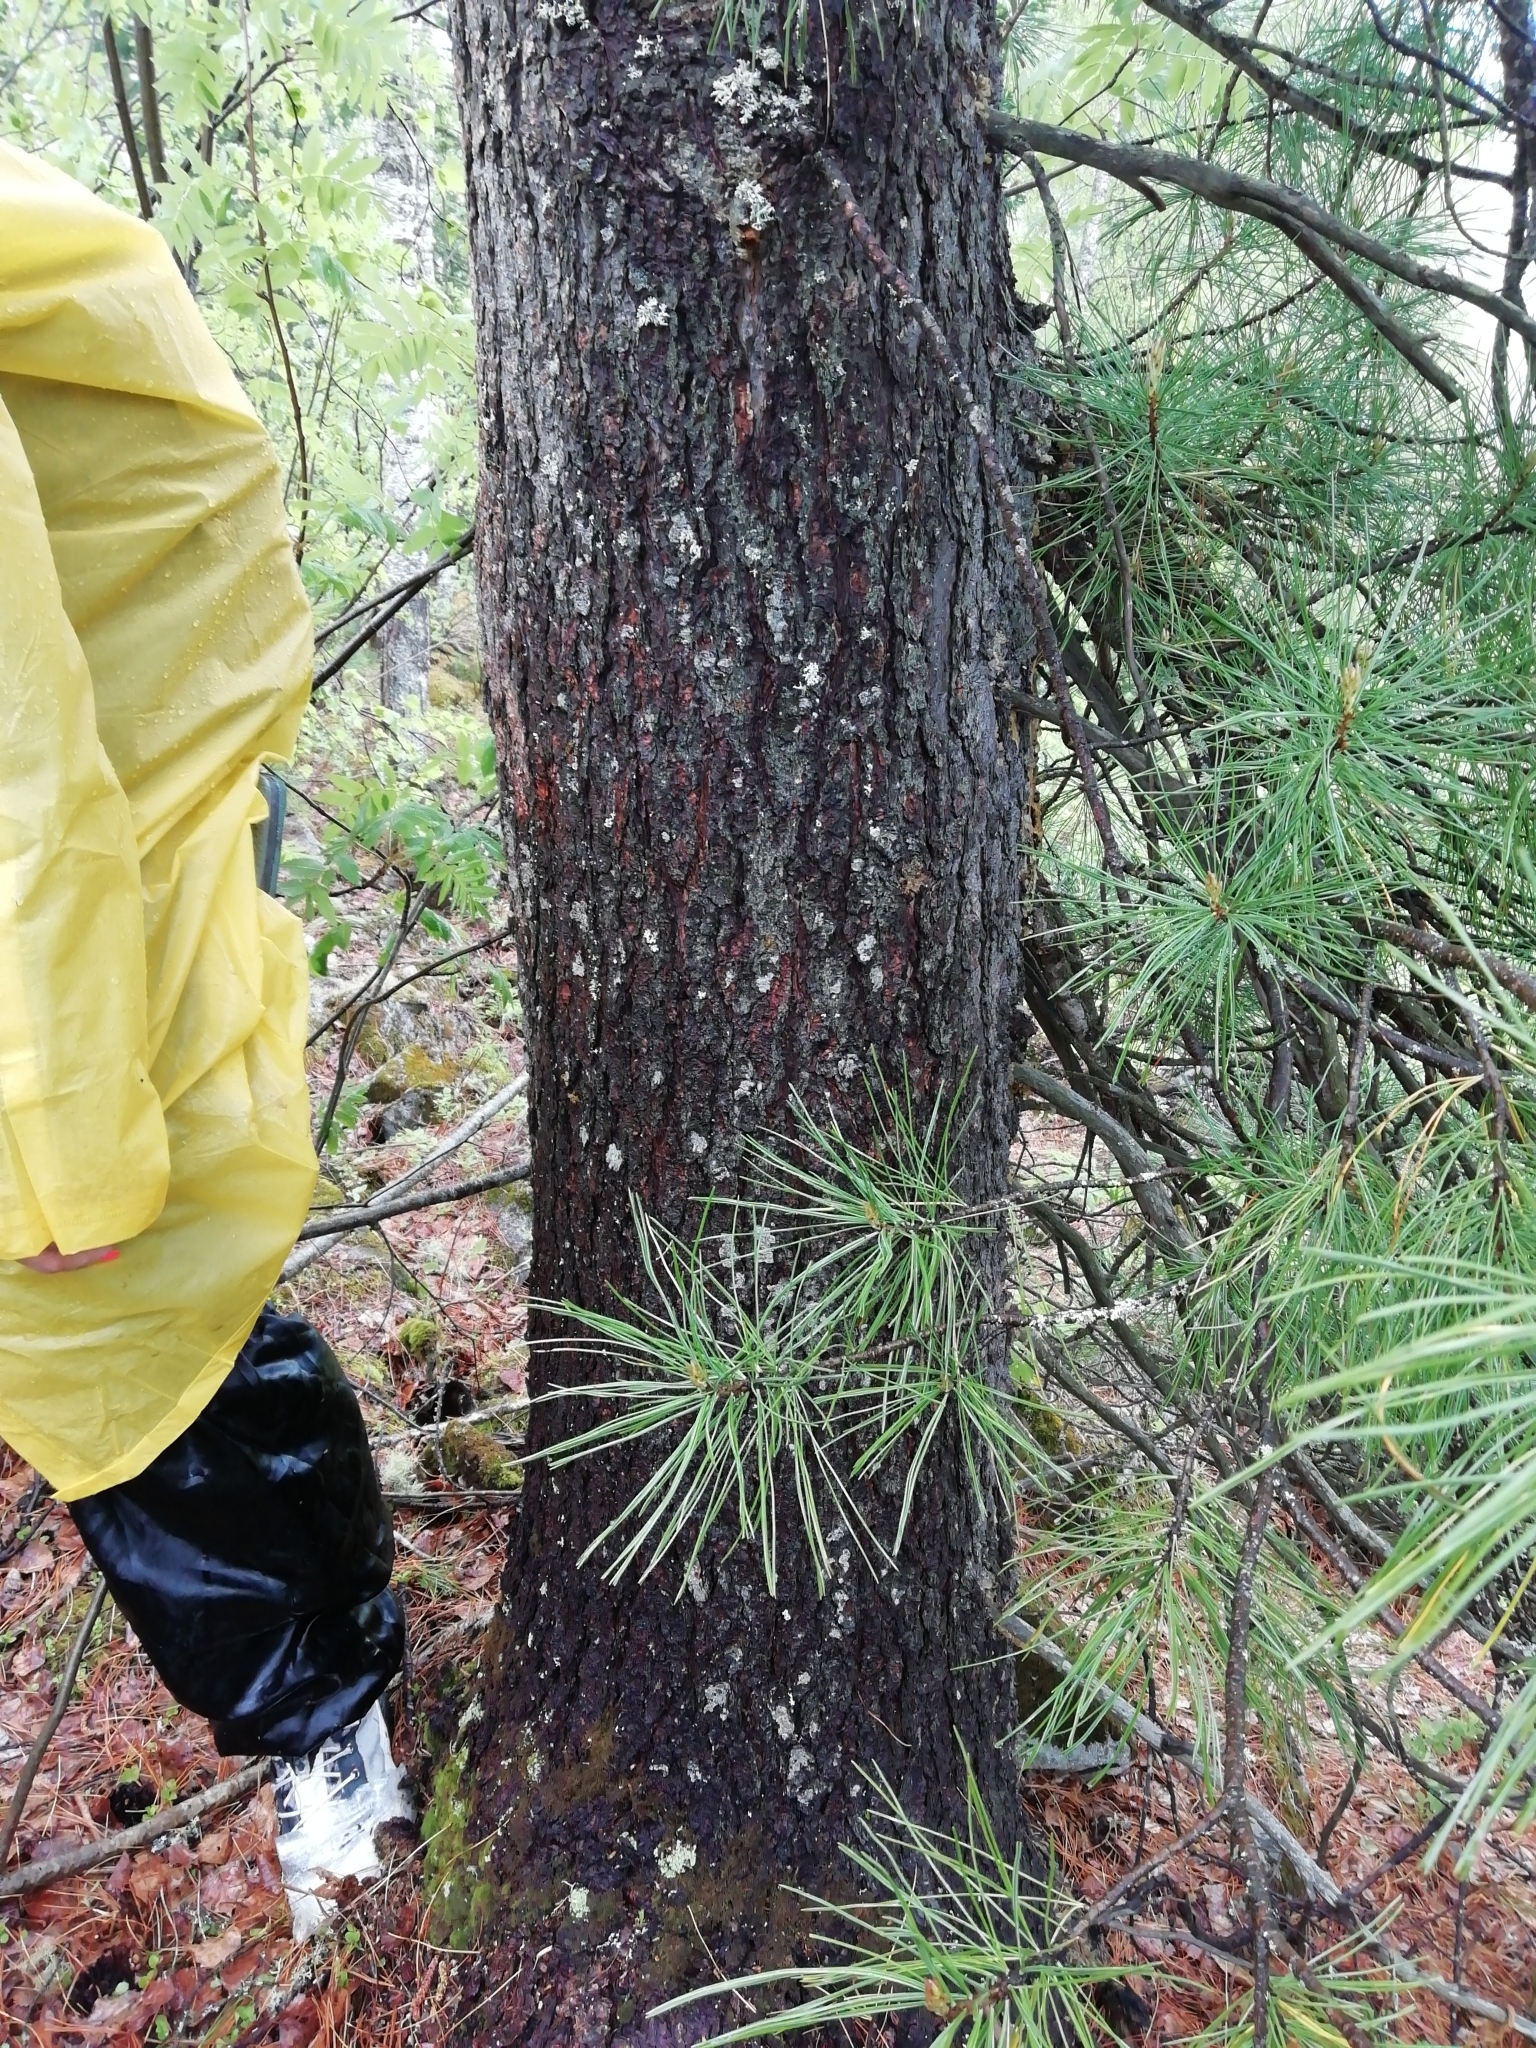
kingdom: Plantae
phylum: Tracheophyta
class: Pinopsida
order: Pinales
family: Pinaceae
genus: Pinus
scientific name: Pinus sibirica
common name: Siberian pine
